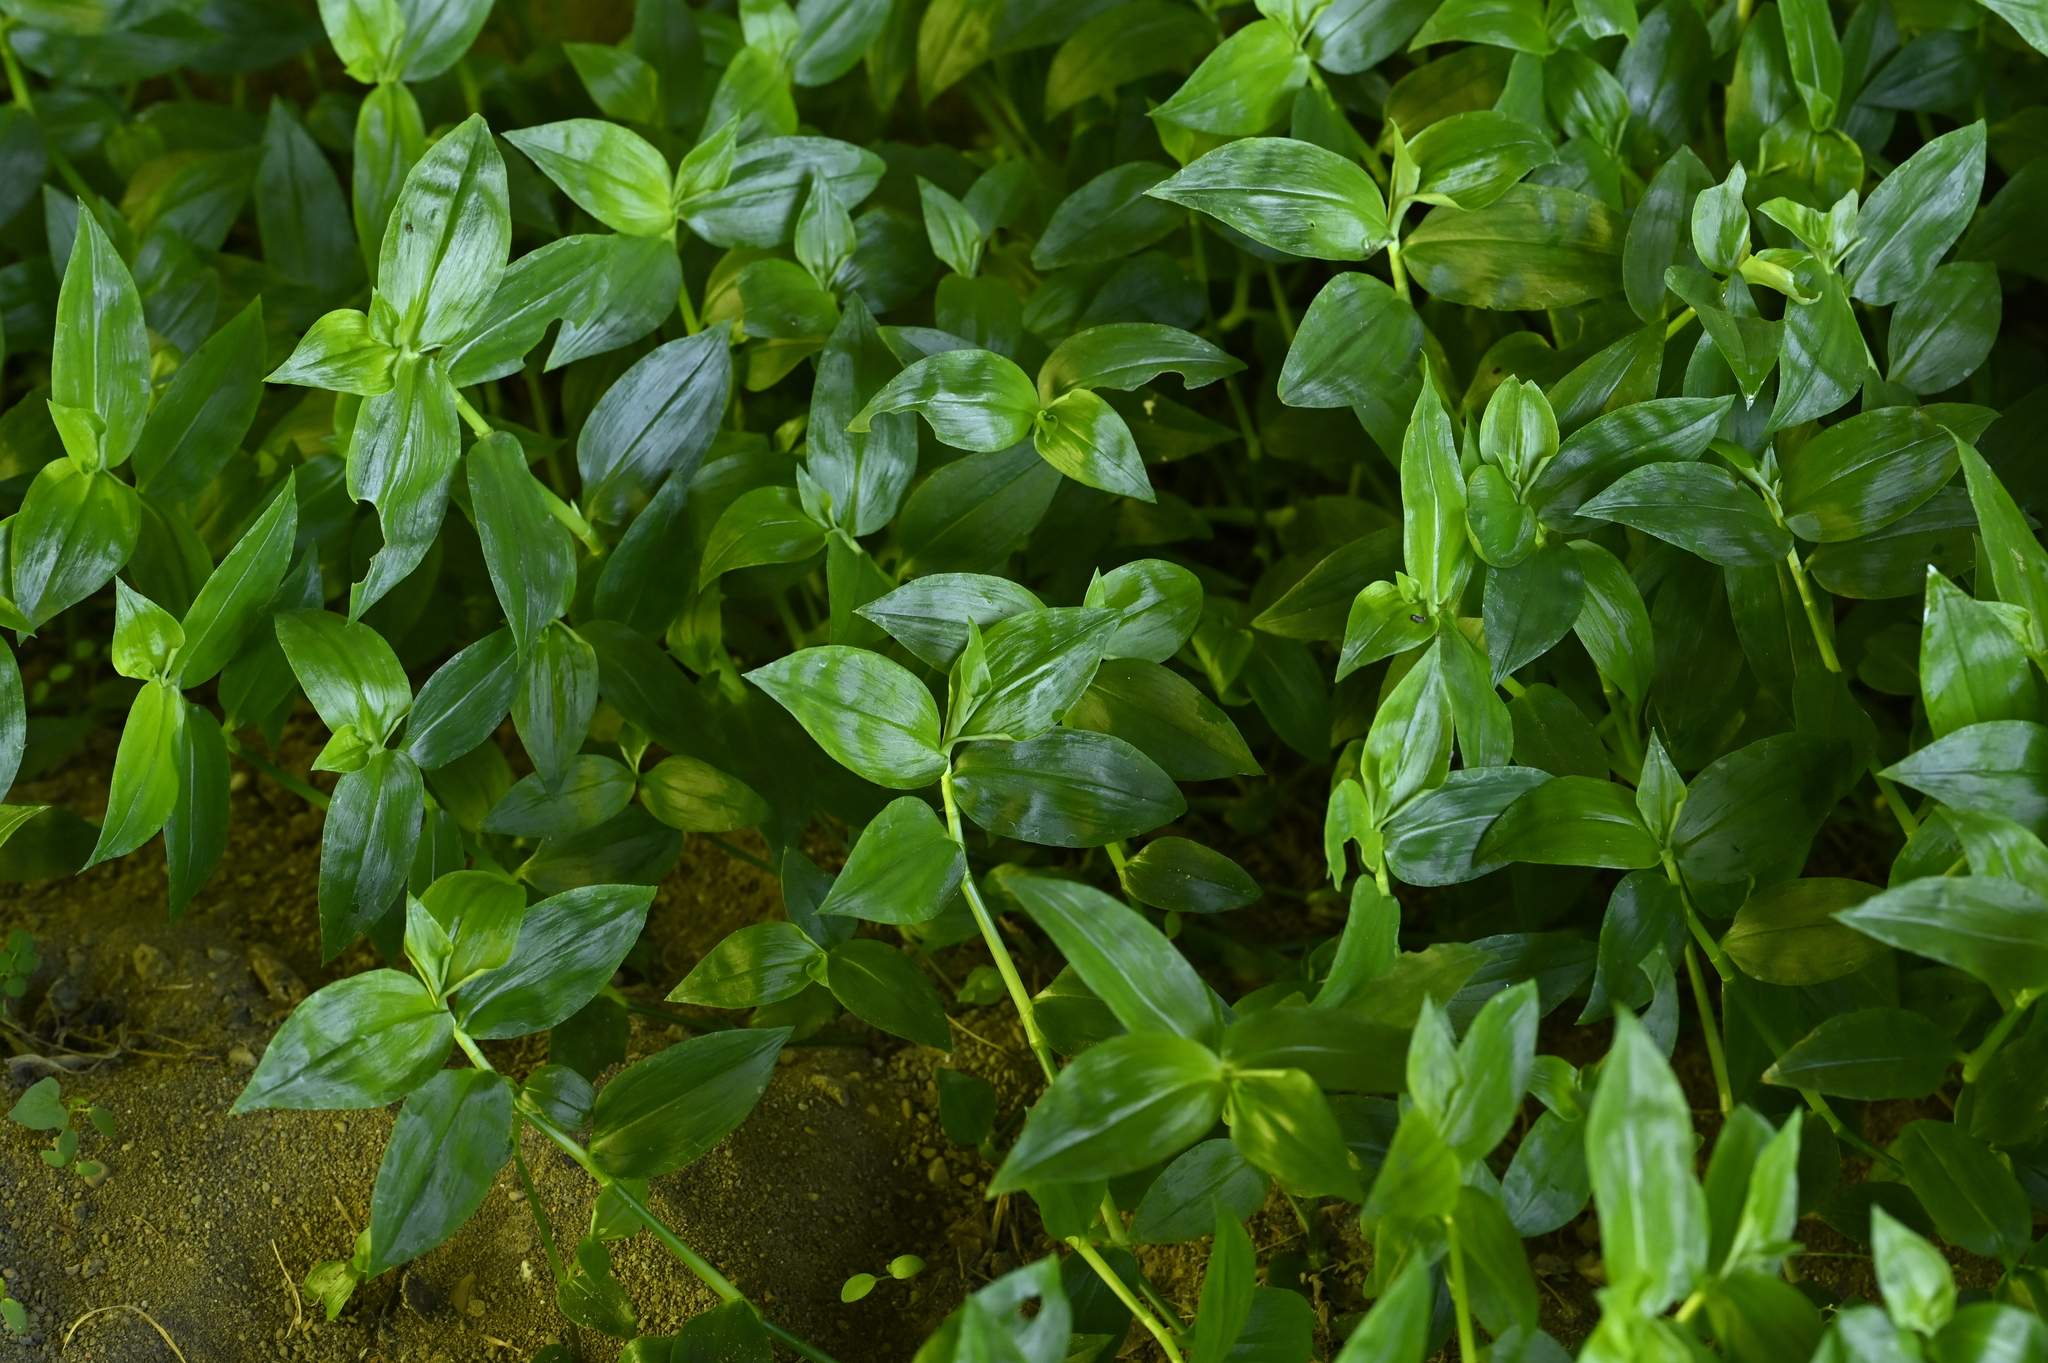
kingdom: Plantae
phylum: Tracheophyta
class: Liliopsida
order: Commelinales
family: Commelinaceae
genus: Tradescantia
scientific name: Tradescantia fluminensis
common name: Wandering-jew
